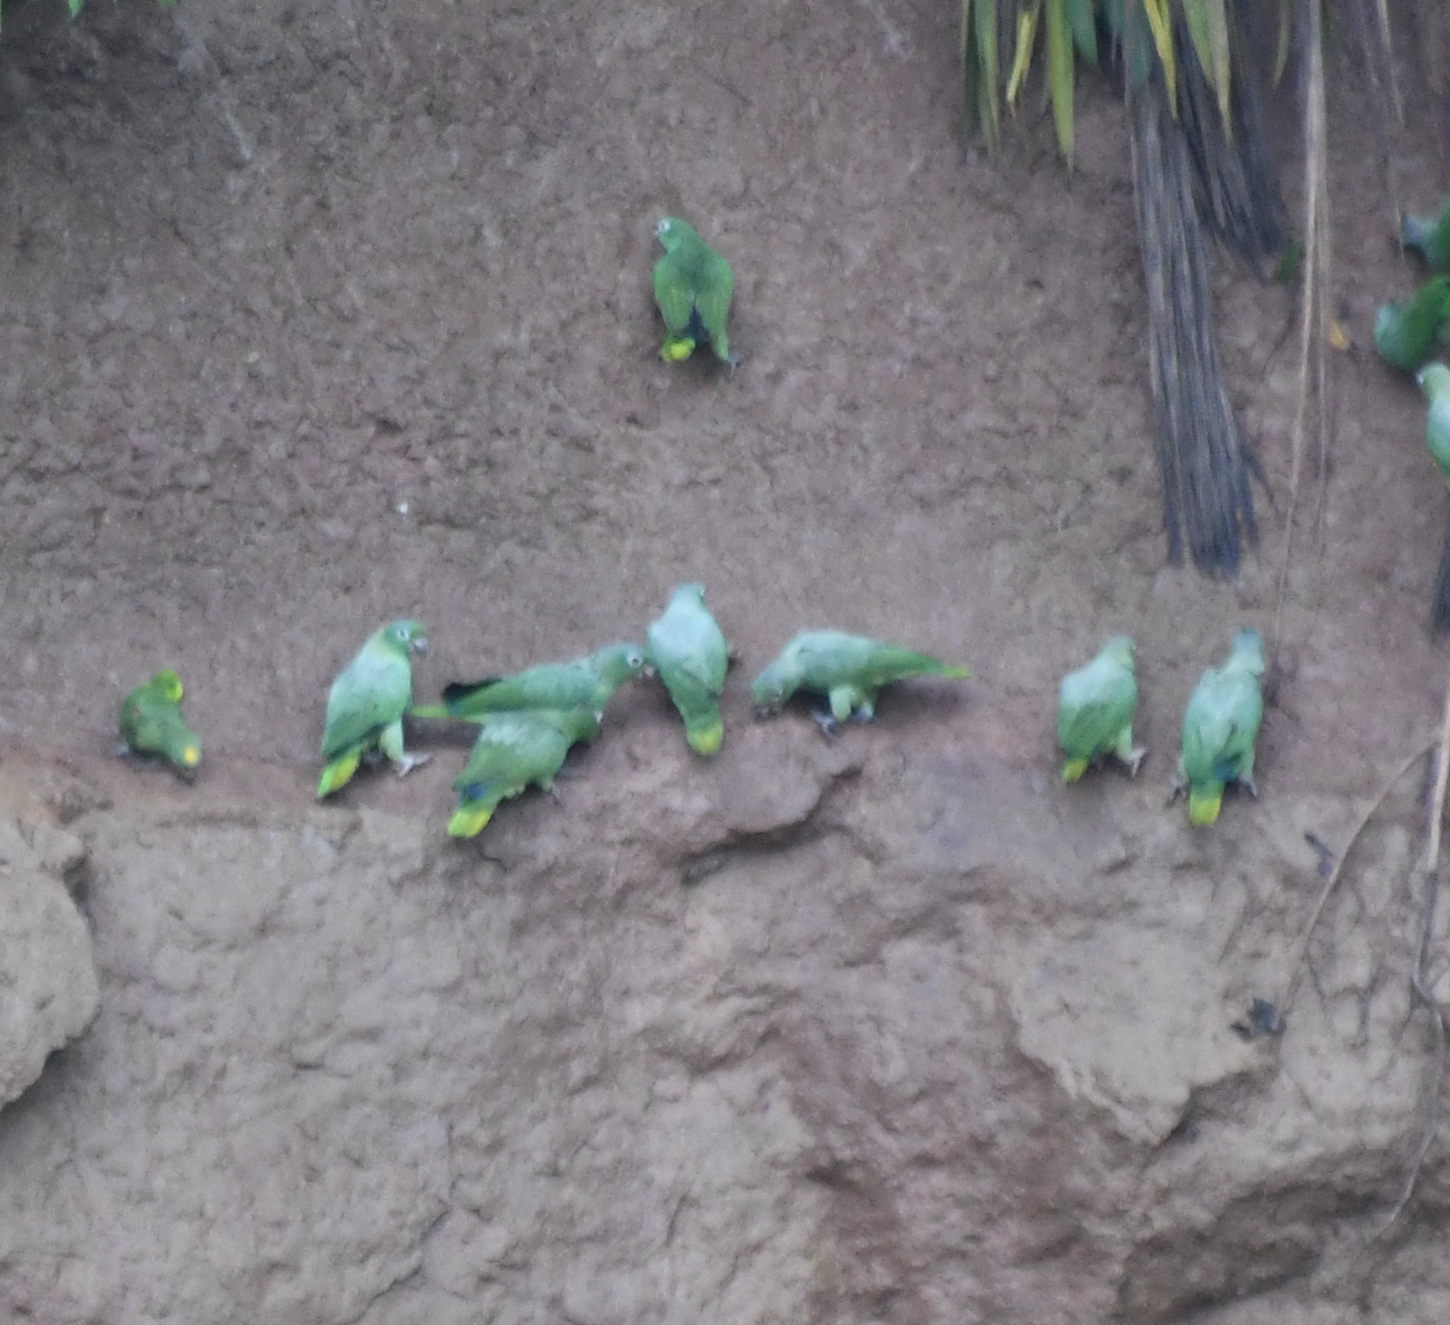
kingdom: Animalia
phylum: Chordata
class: Aves
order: Psittaciformes
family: Psittacidae
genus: Amazona
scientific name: Amazona farinosa
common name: Mealy parrot
